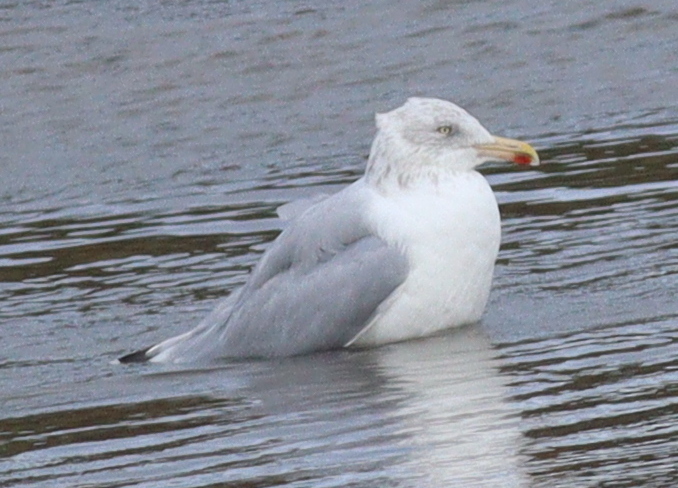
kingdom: Animalia
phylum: Chordata
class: Aves
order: Charadriiformes
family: Laridae
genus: Larus
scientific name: Larus argentatus
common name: Herring gull
